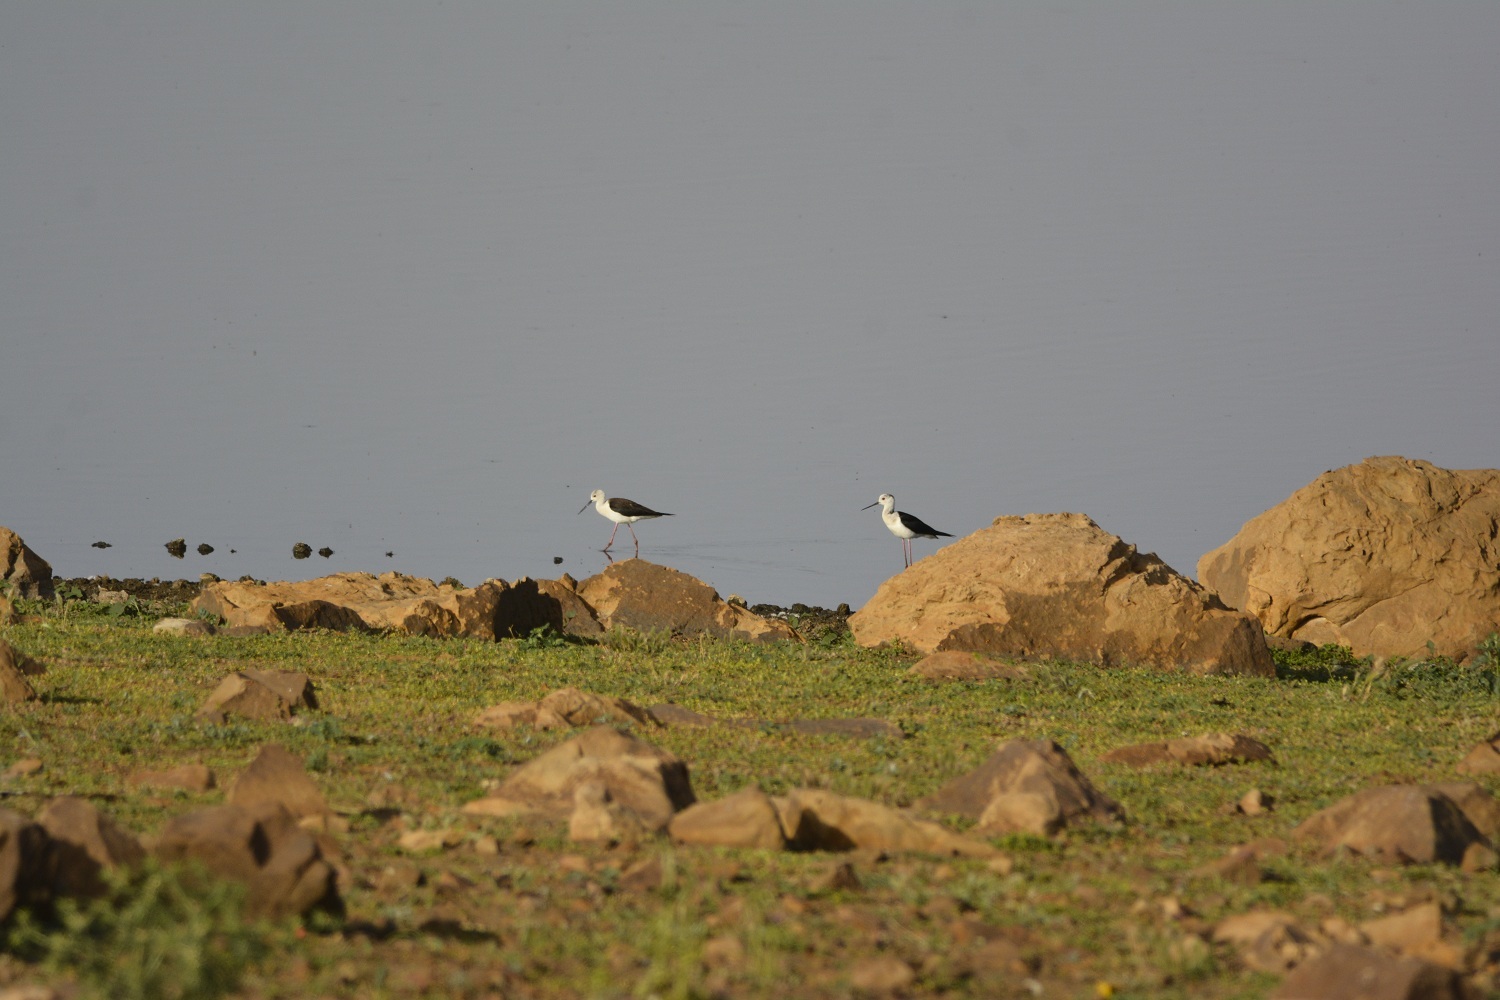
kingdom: Animalia
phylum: Chordata
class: Aves
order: Charadriiformes
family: Recurvirostridae
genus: Himantopus
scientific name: Himantopus himantopus
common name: Black-winged stilt
